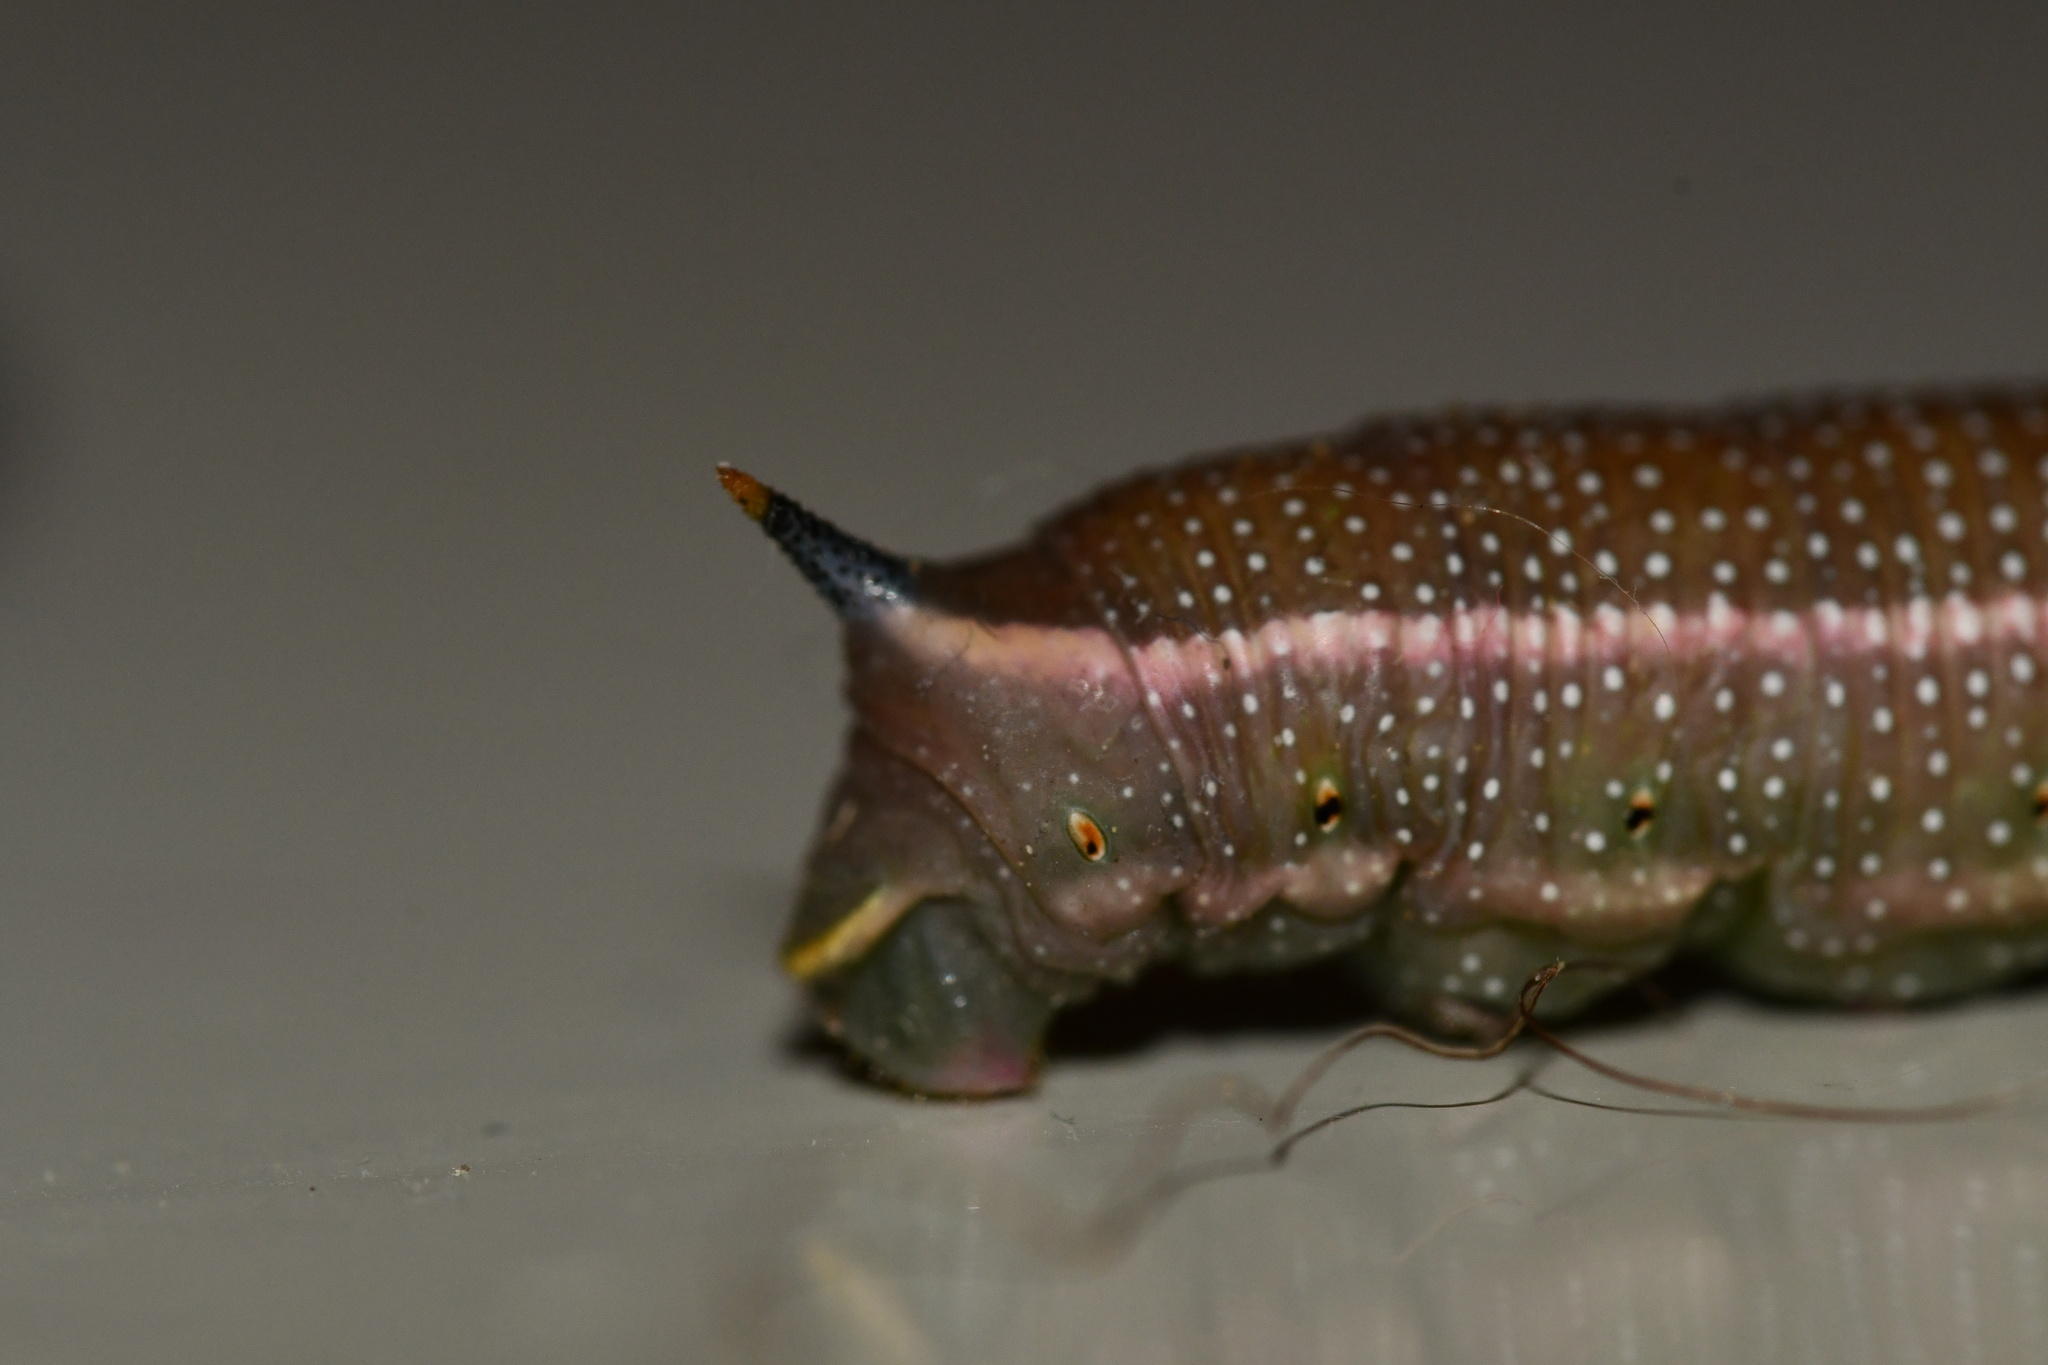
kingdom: Animalia
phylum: Arthropoda
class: Insecta
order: Lepidoptera
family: Sphingidae
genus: Macroglossum
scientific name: Macroglossum stellatarum
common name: Humming-bird hawk-moth
